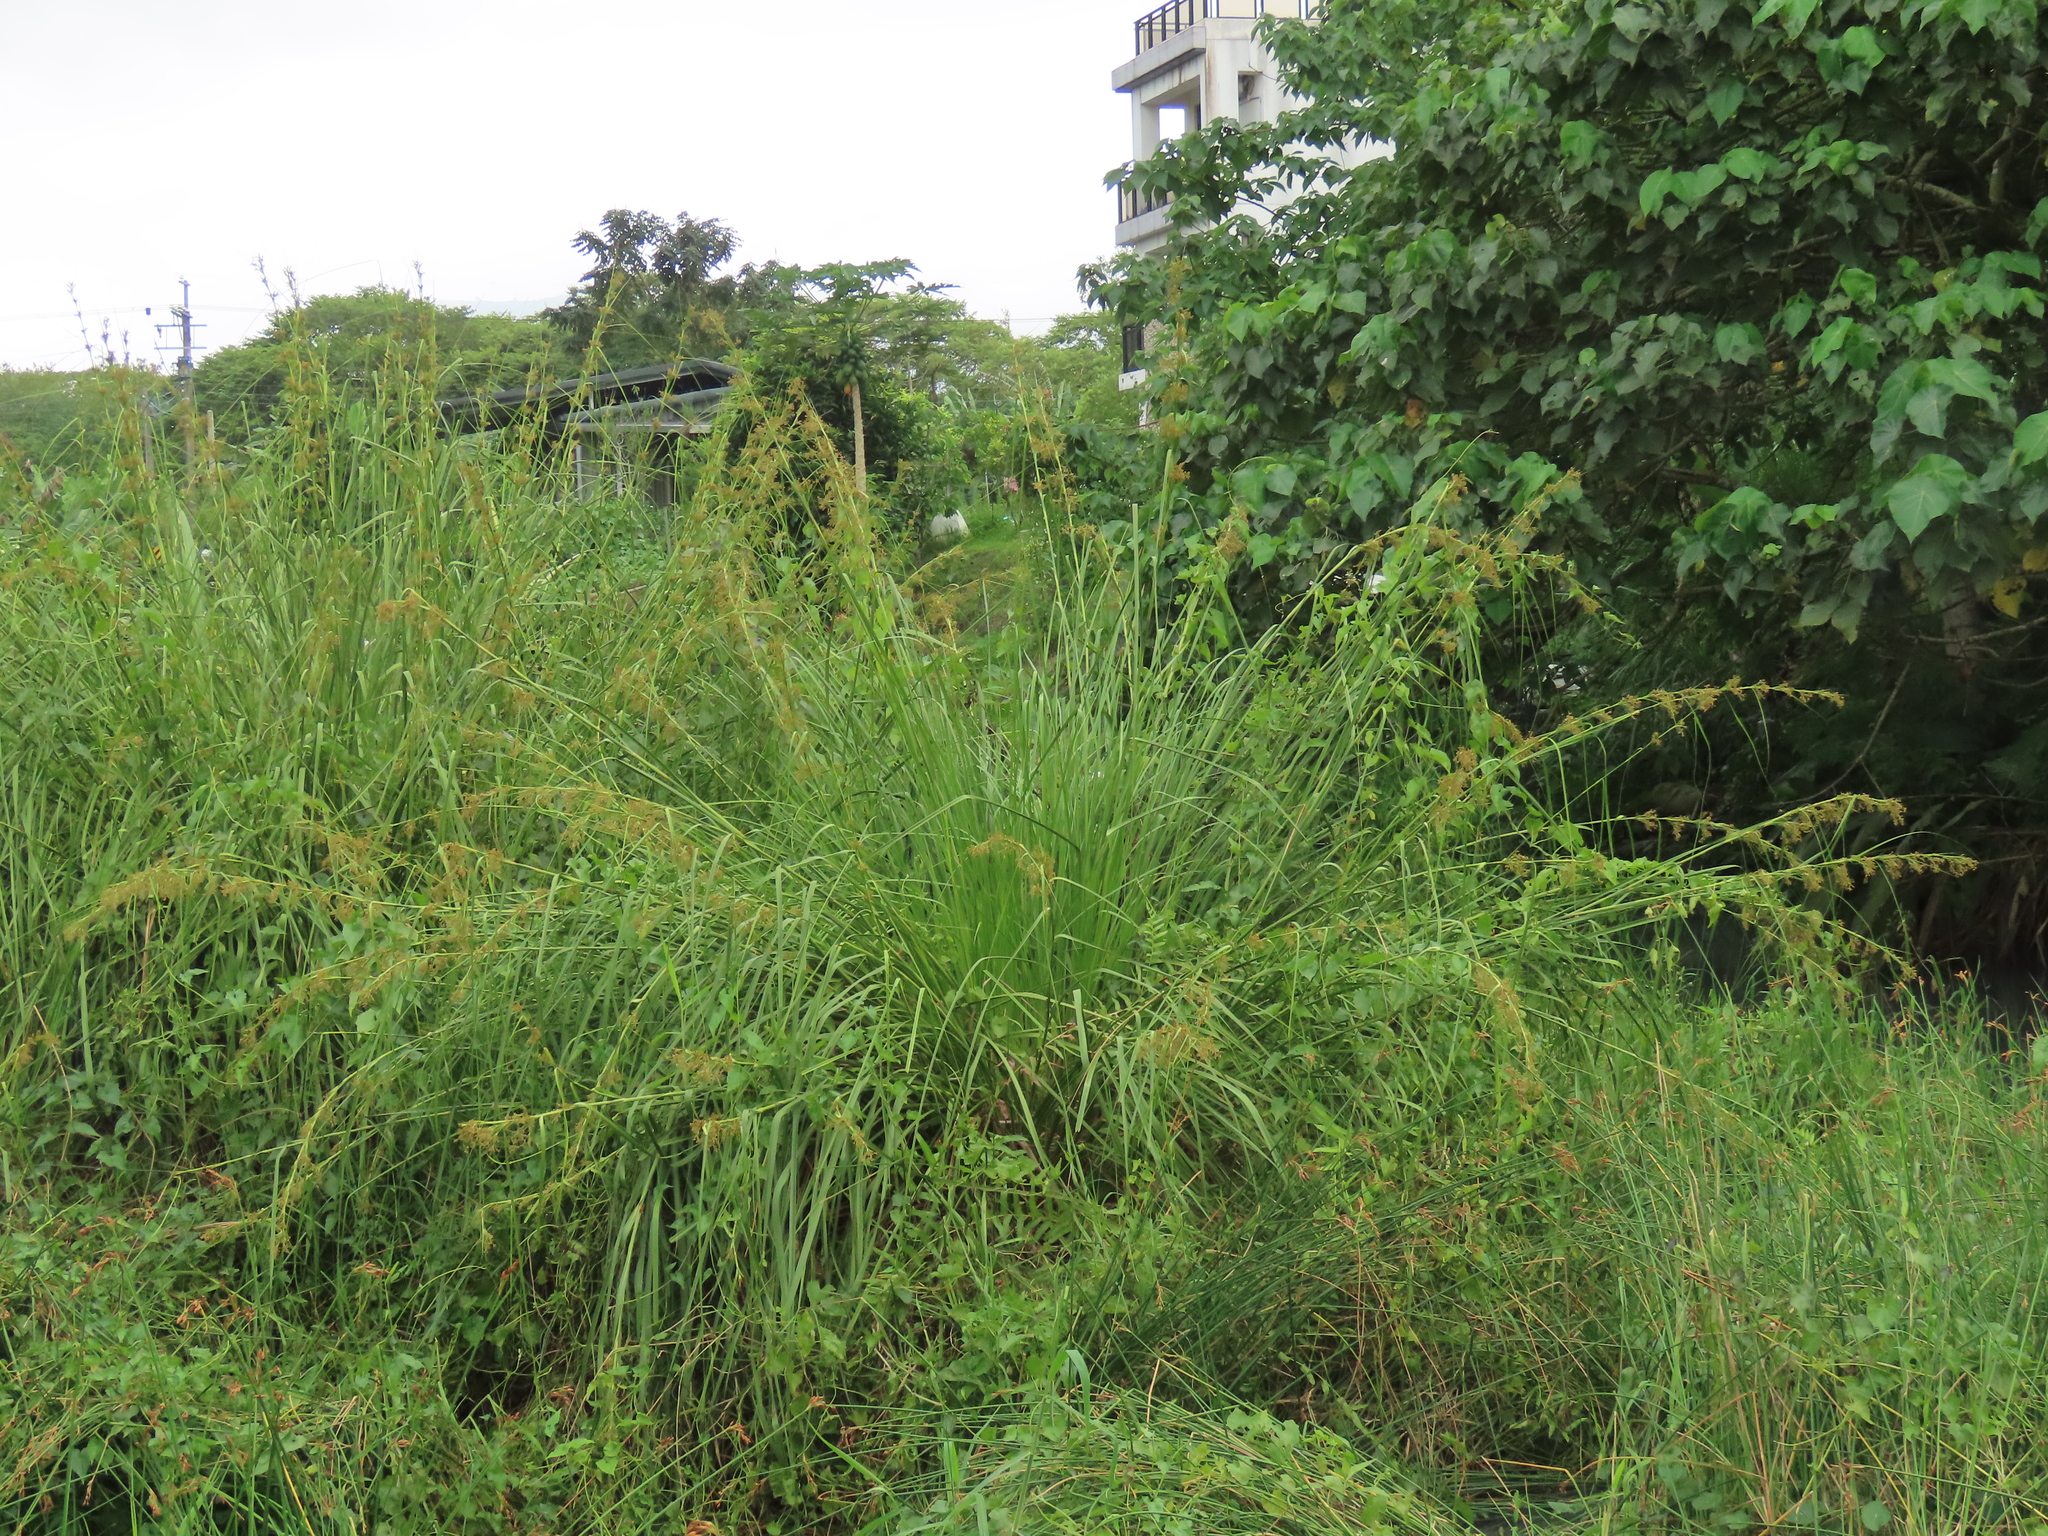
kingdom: Plantae
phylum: Tracheophyta
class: Liliopsida
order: Poales
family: Cyperaceae
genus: Cladium
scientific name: Cladium mariscus
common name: Great fen-sedge
